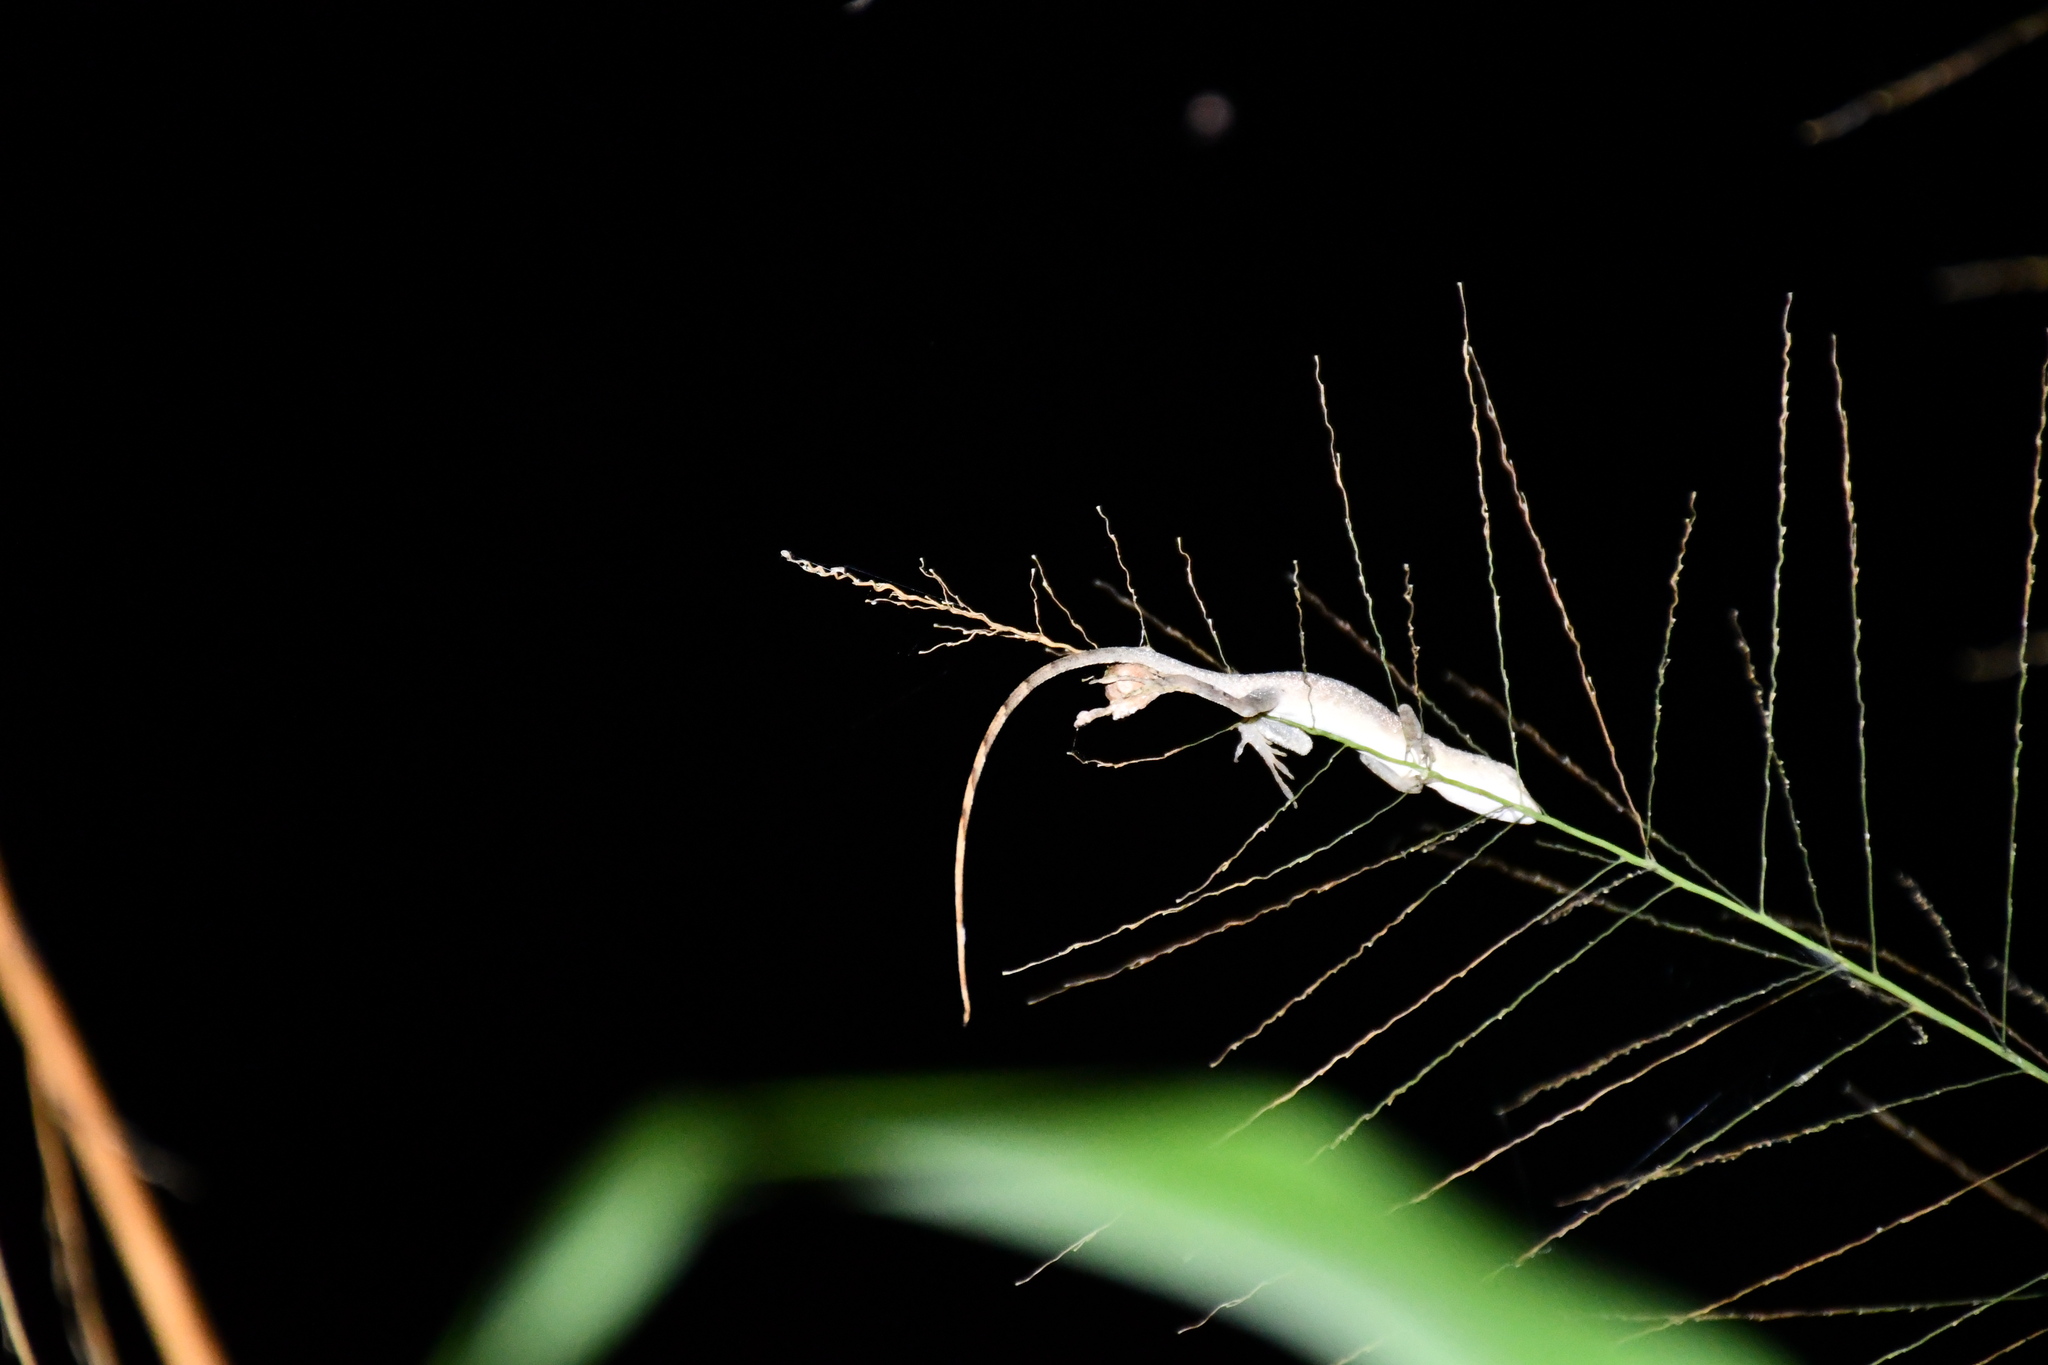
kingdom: Animalia
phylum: Chordata
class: Squamata
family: Dactyloidae
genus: Anolis
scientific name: Anolis fuscoauratus
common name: Brown-eared anole
